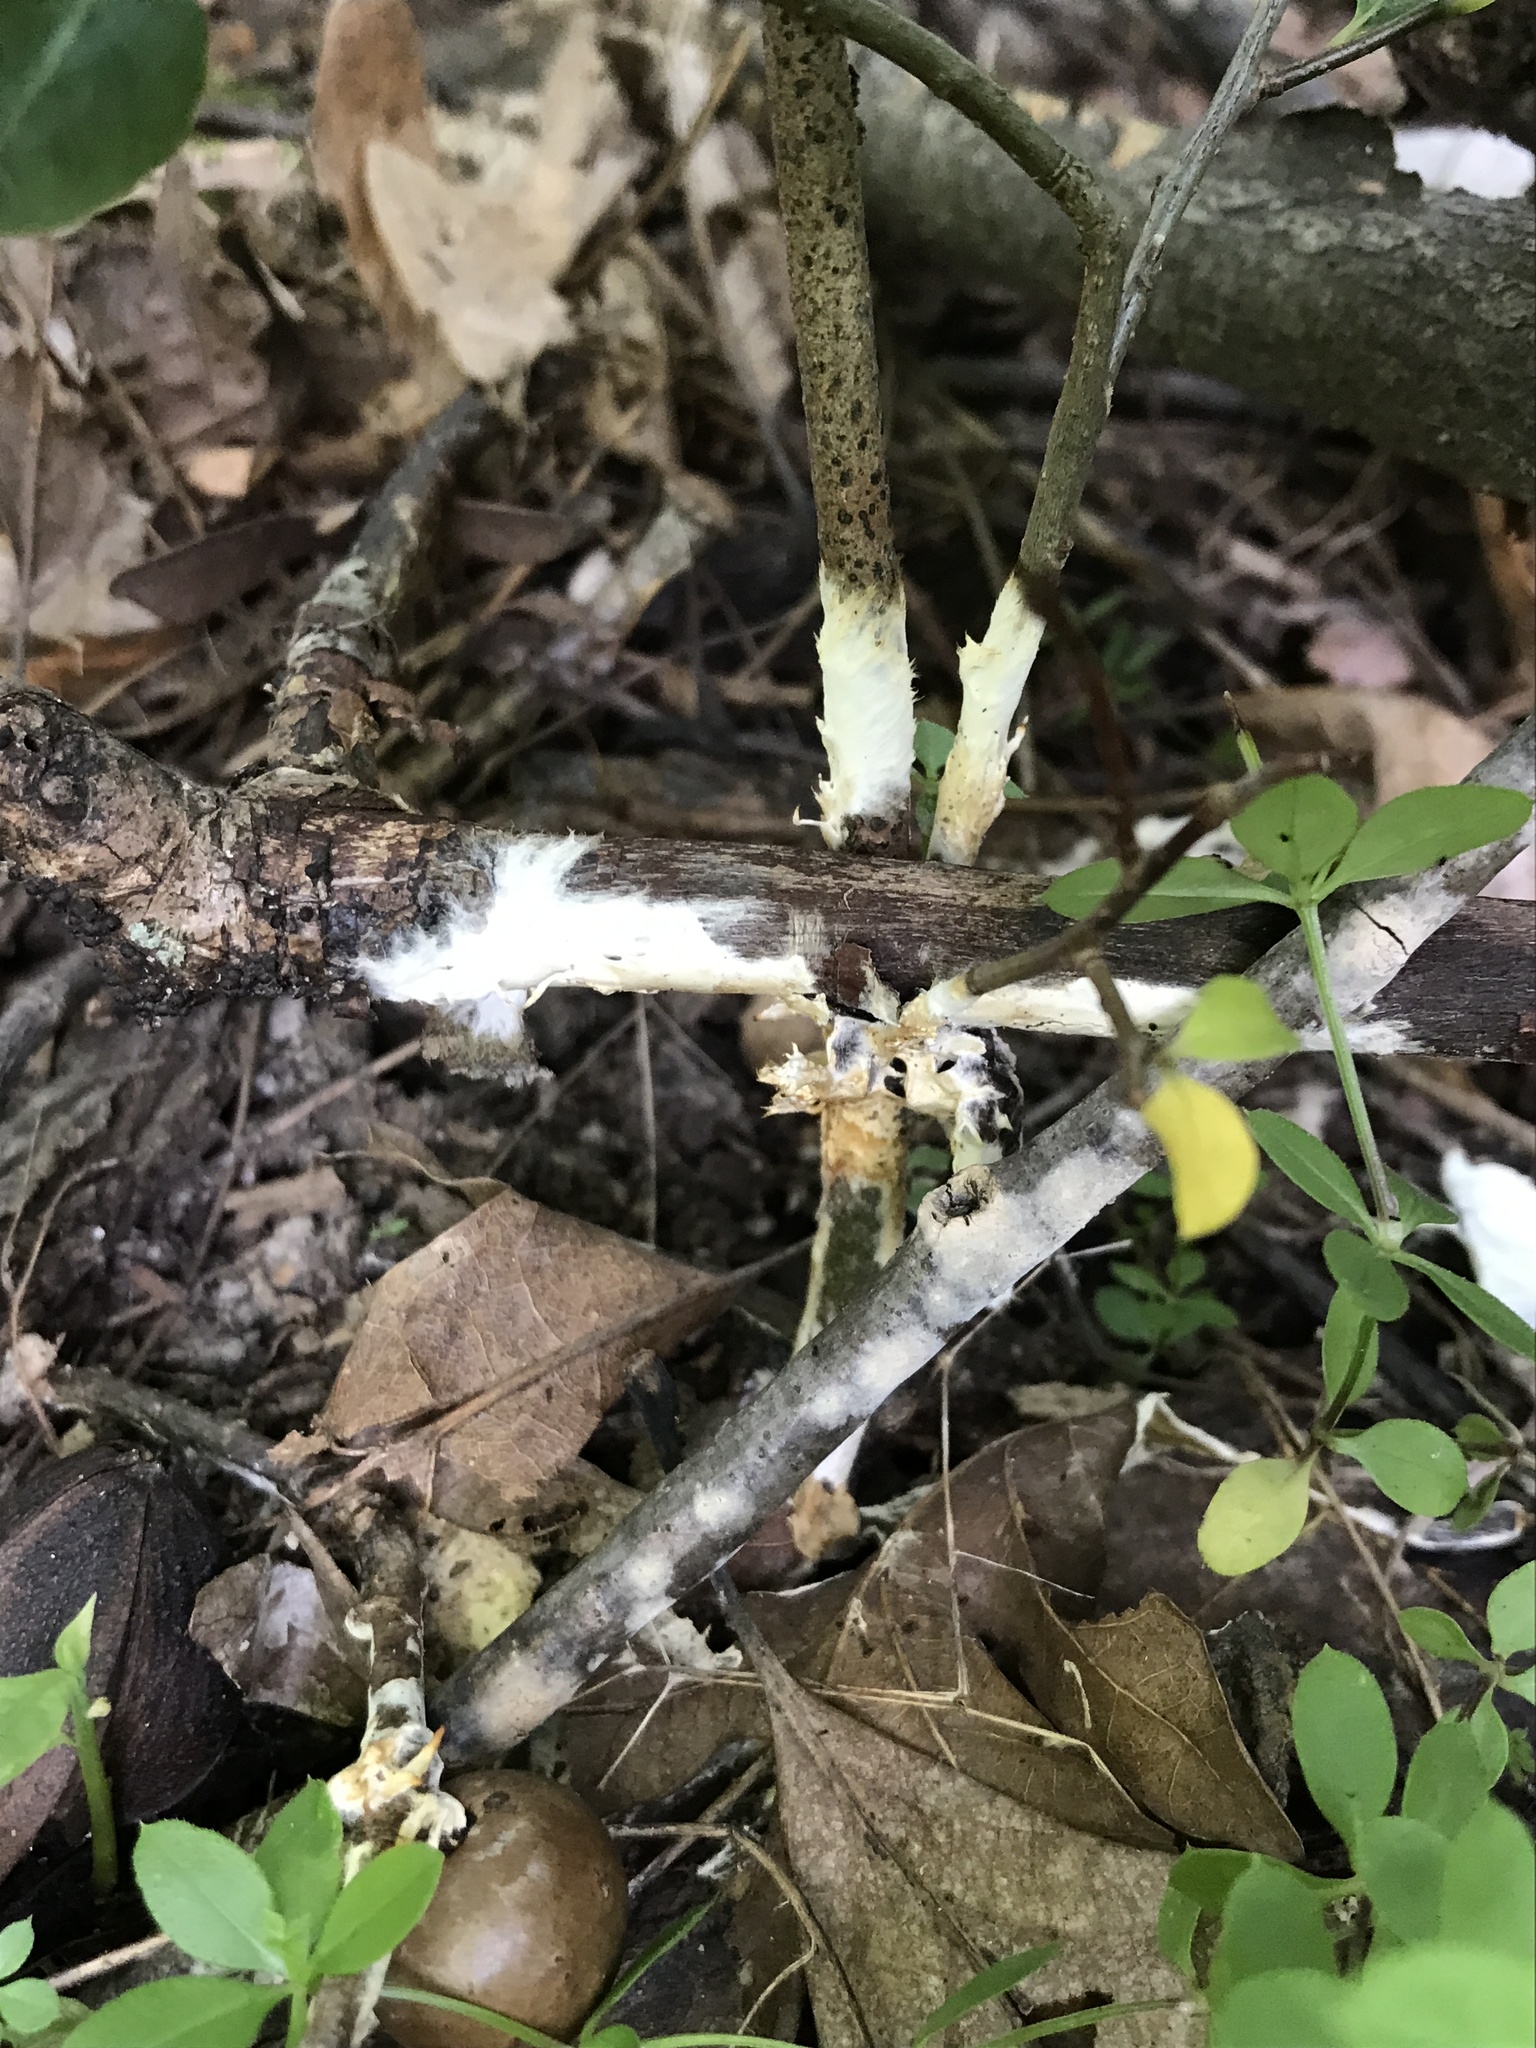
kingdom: Fungi
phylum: Basidiomycota
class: Agaricomycetes
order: Sebacinales
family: Sebacinaceae
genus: Sebacina
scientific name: Sebacina incrustans
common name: Enveloping crust
